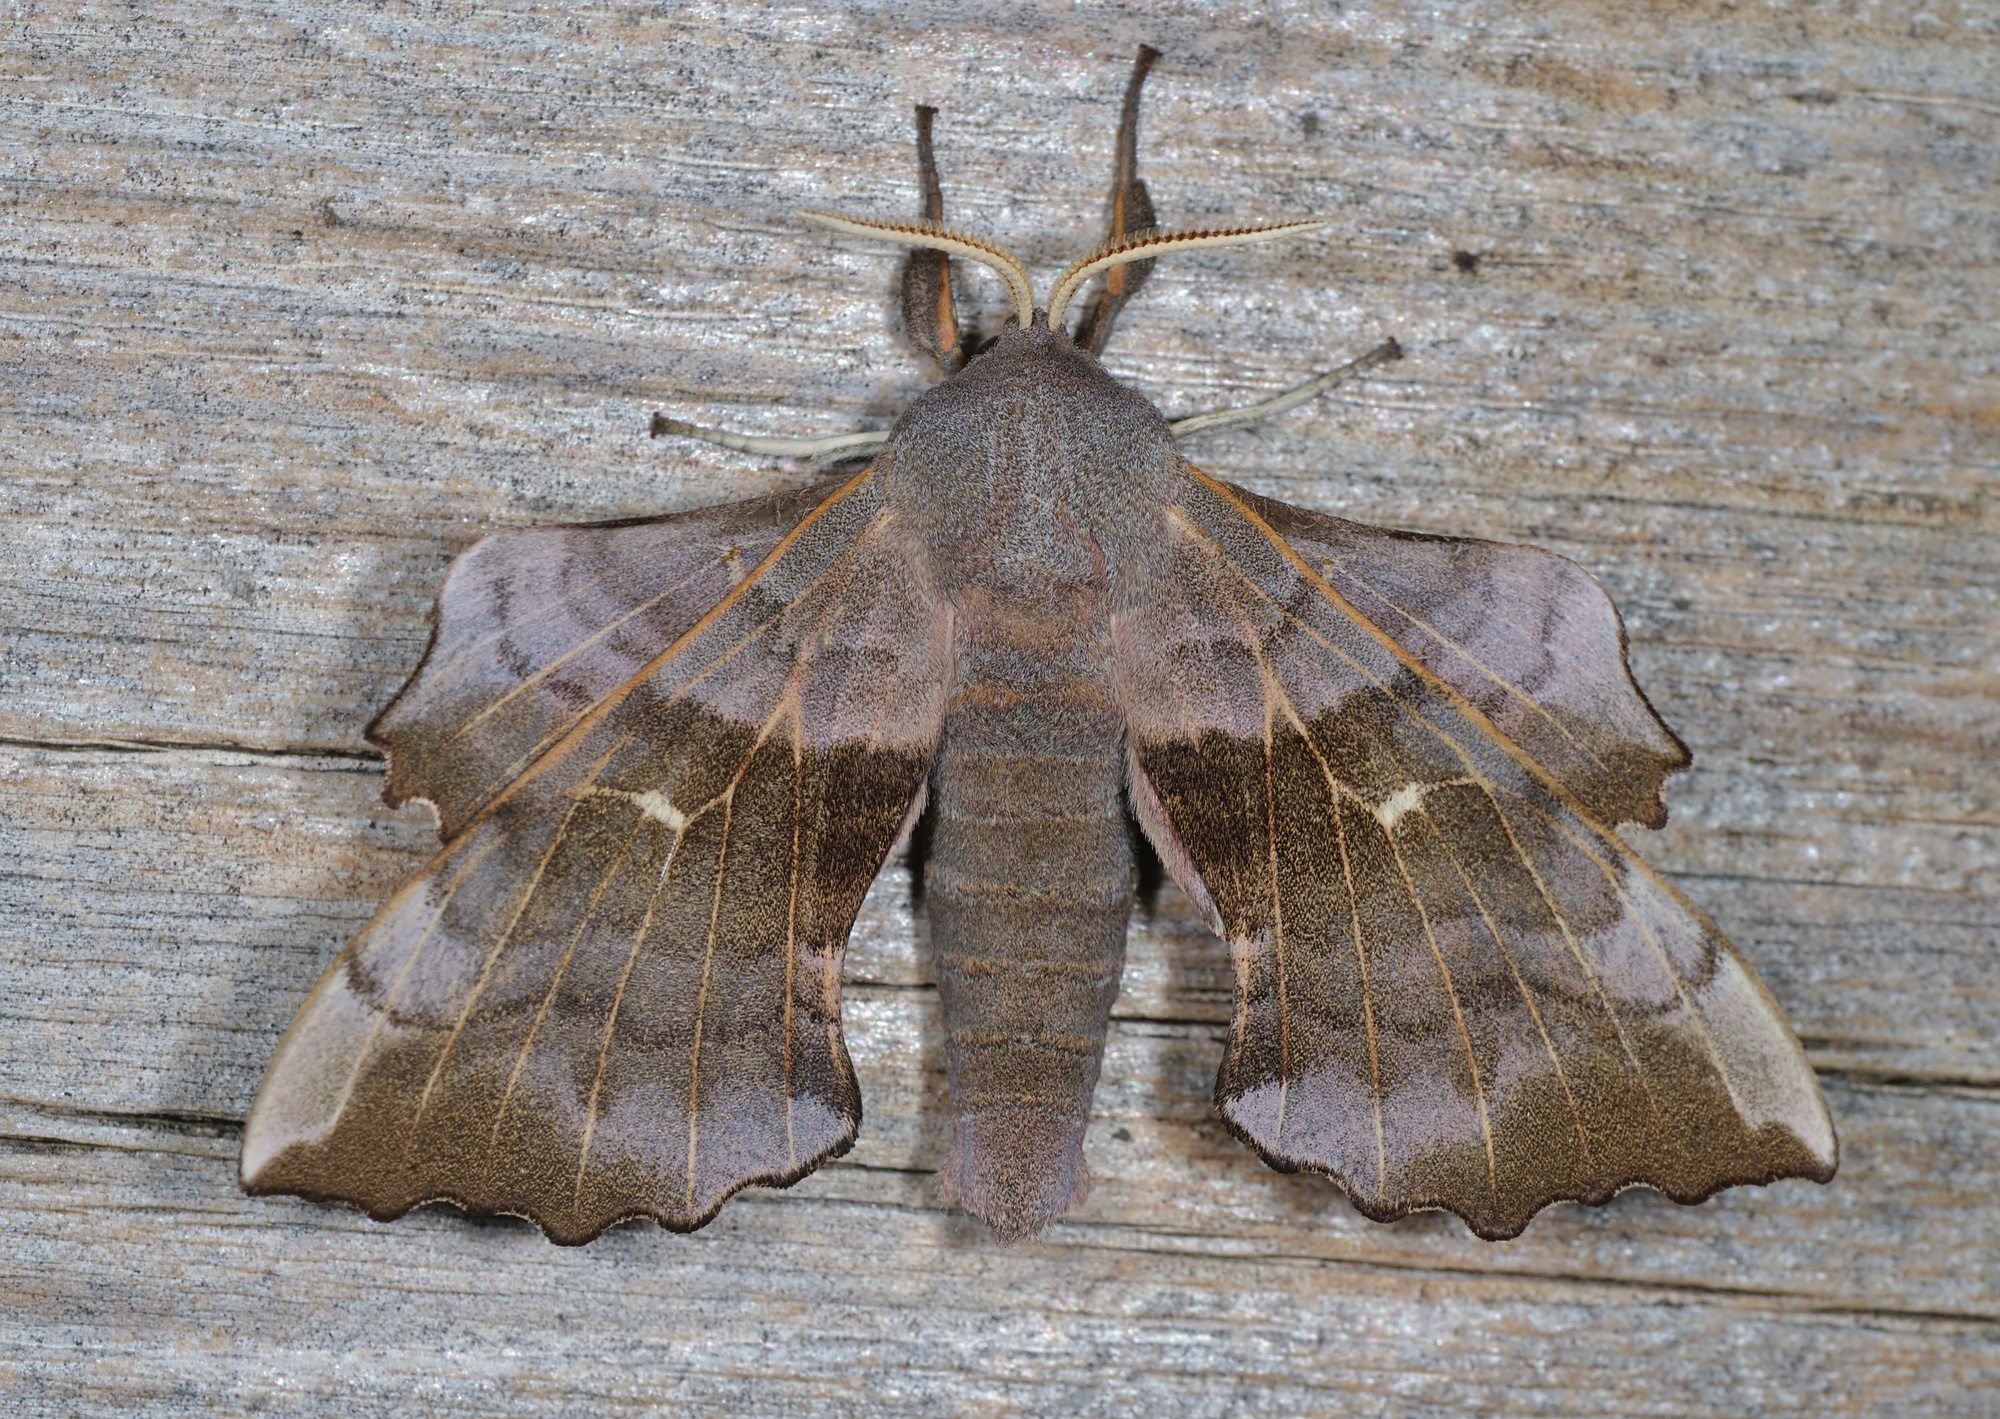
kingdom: Animalia
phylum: Arthropoda
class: Insecta
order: Lepidoptera
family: Sphingidae
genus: Laothoe
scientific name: Laothoe populi
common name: Poplar hawk-moth
